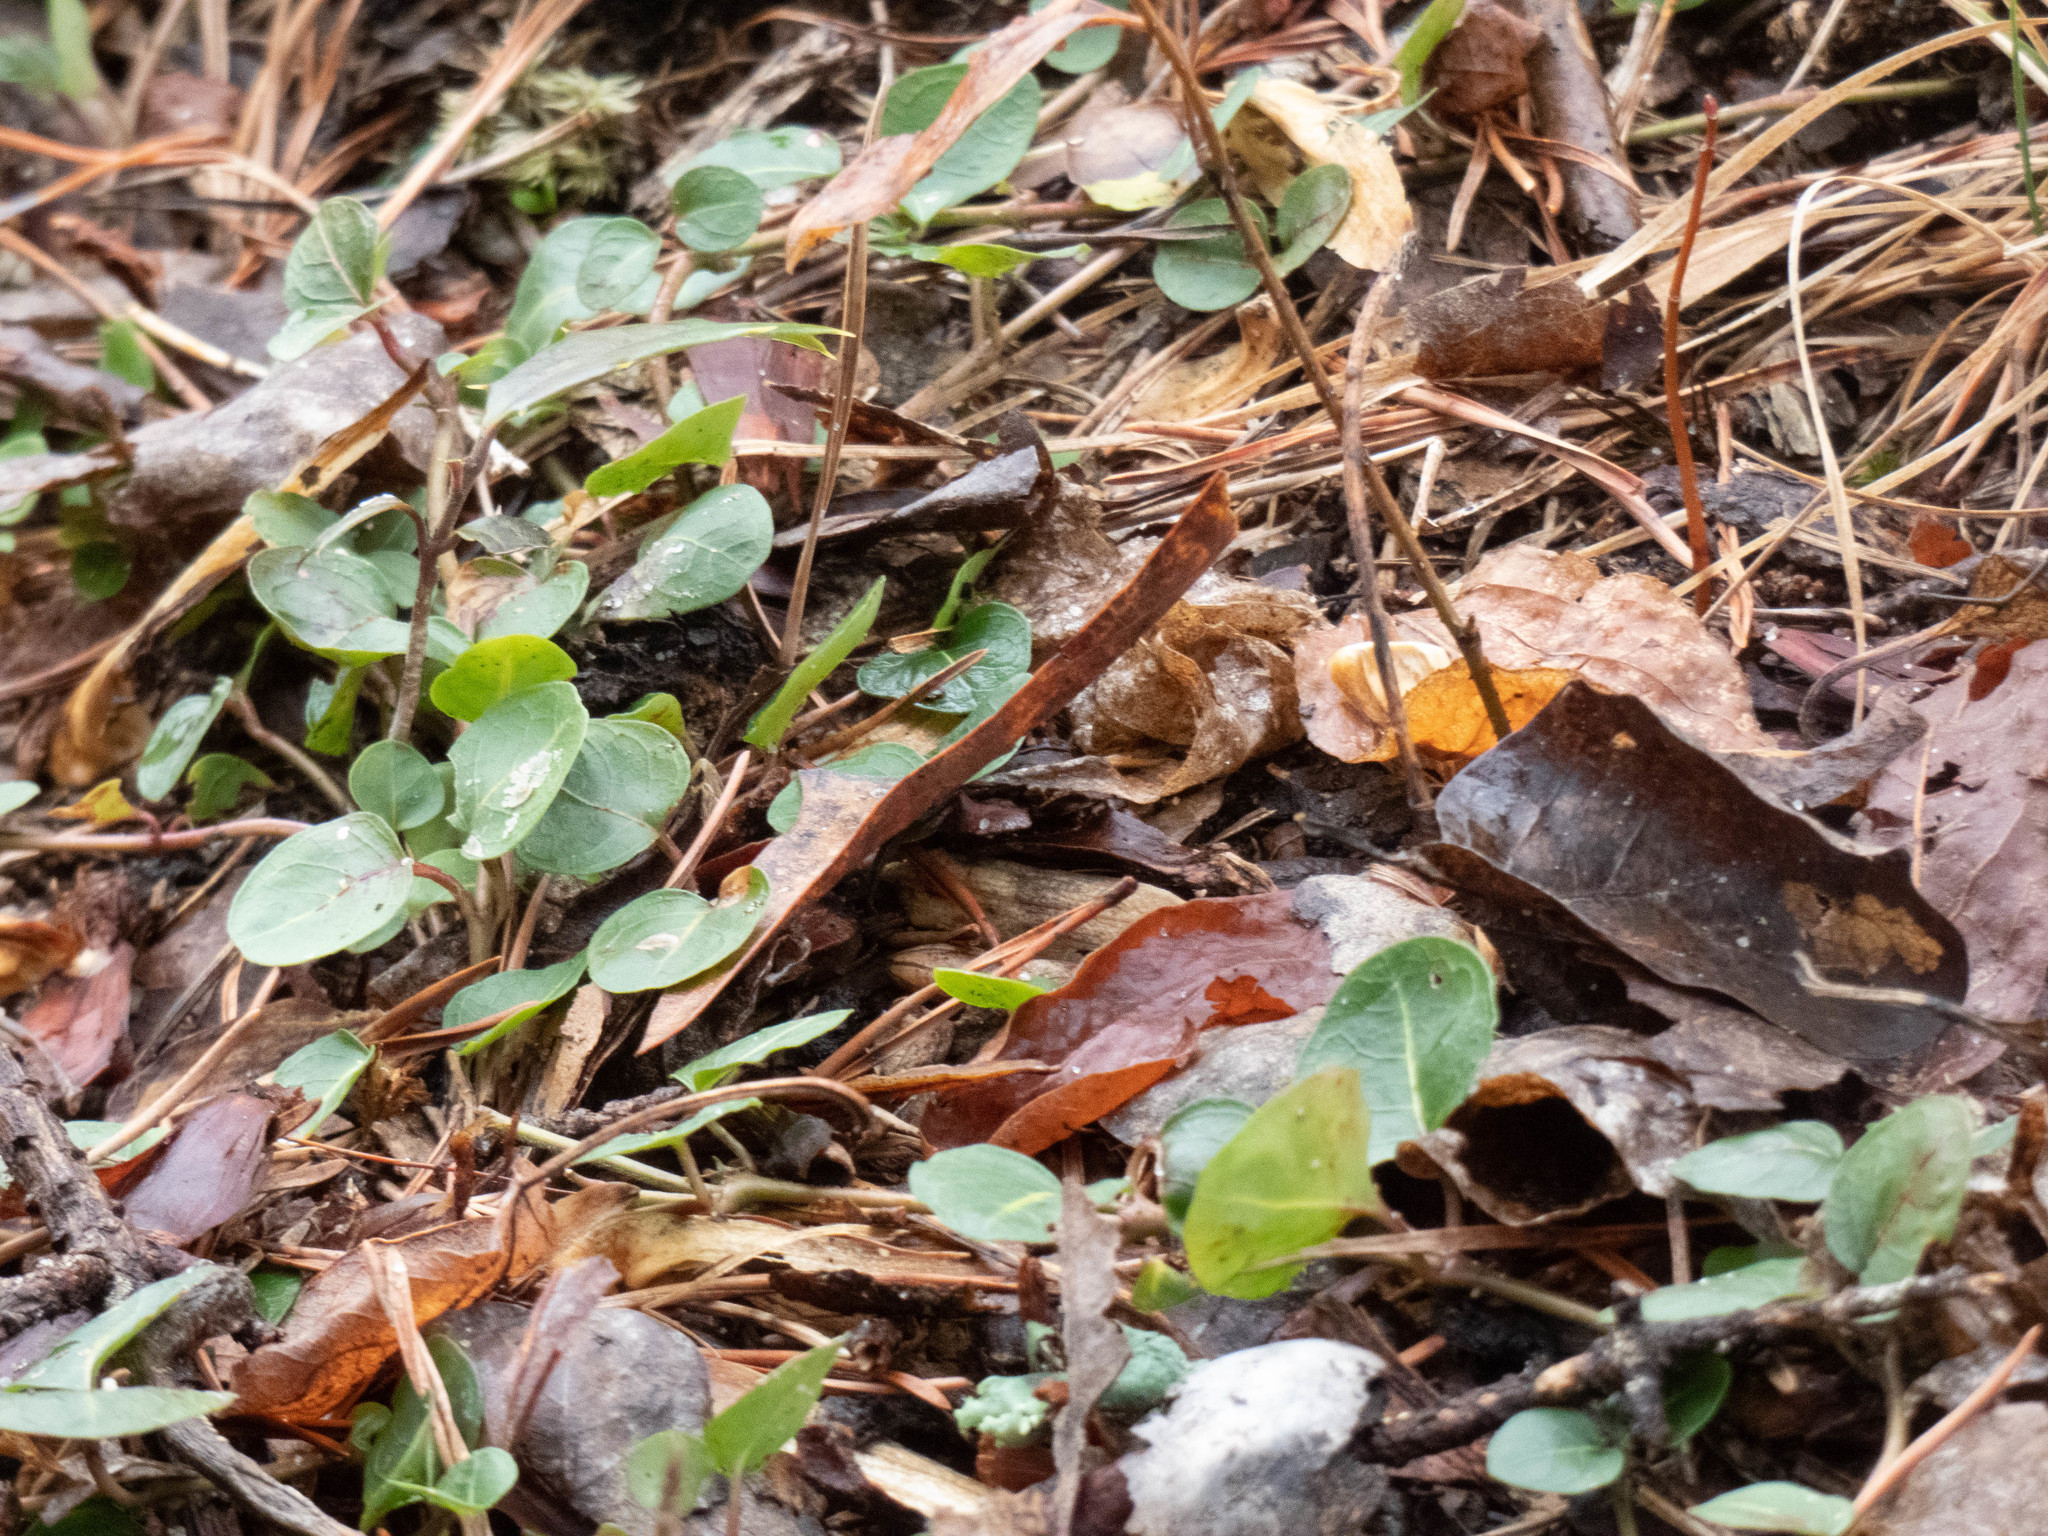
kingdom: Plantae
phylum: Tracheophyta
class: Magnoliopsida
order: Gentianales
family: Rubiaceae
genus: Mitchella
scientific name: Mitchella repens
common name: Partridge-berry
